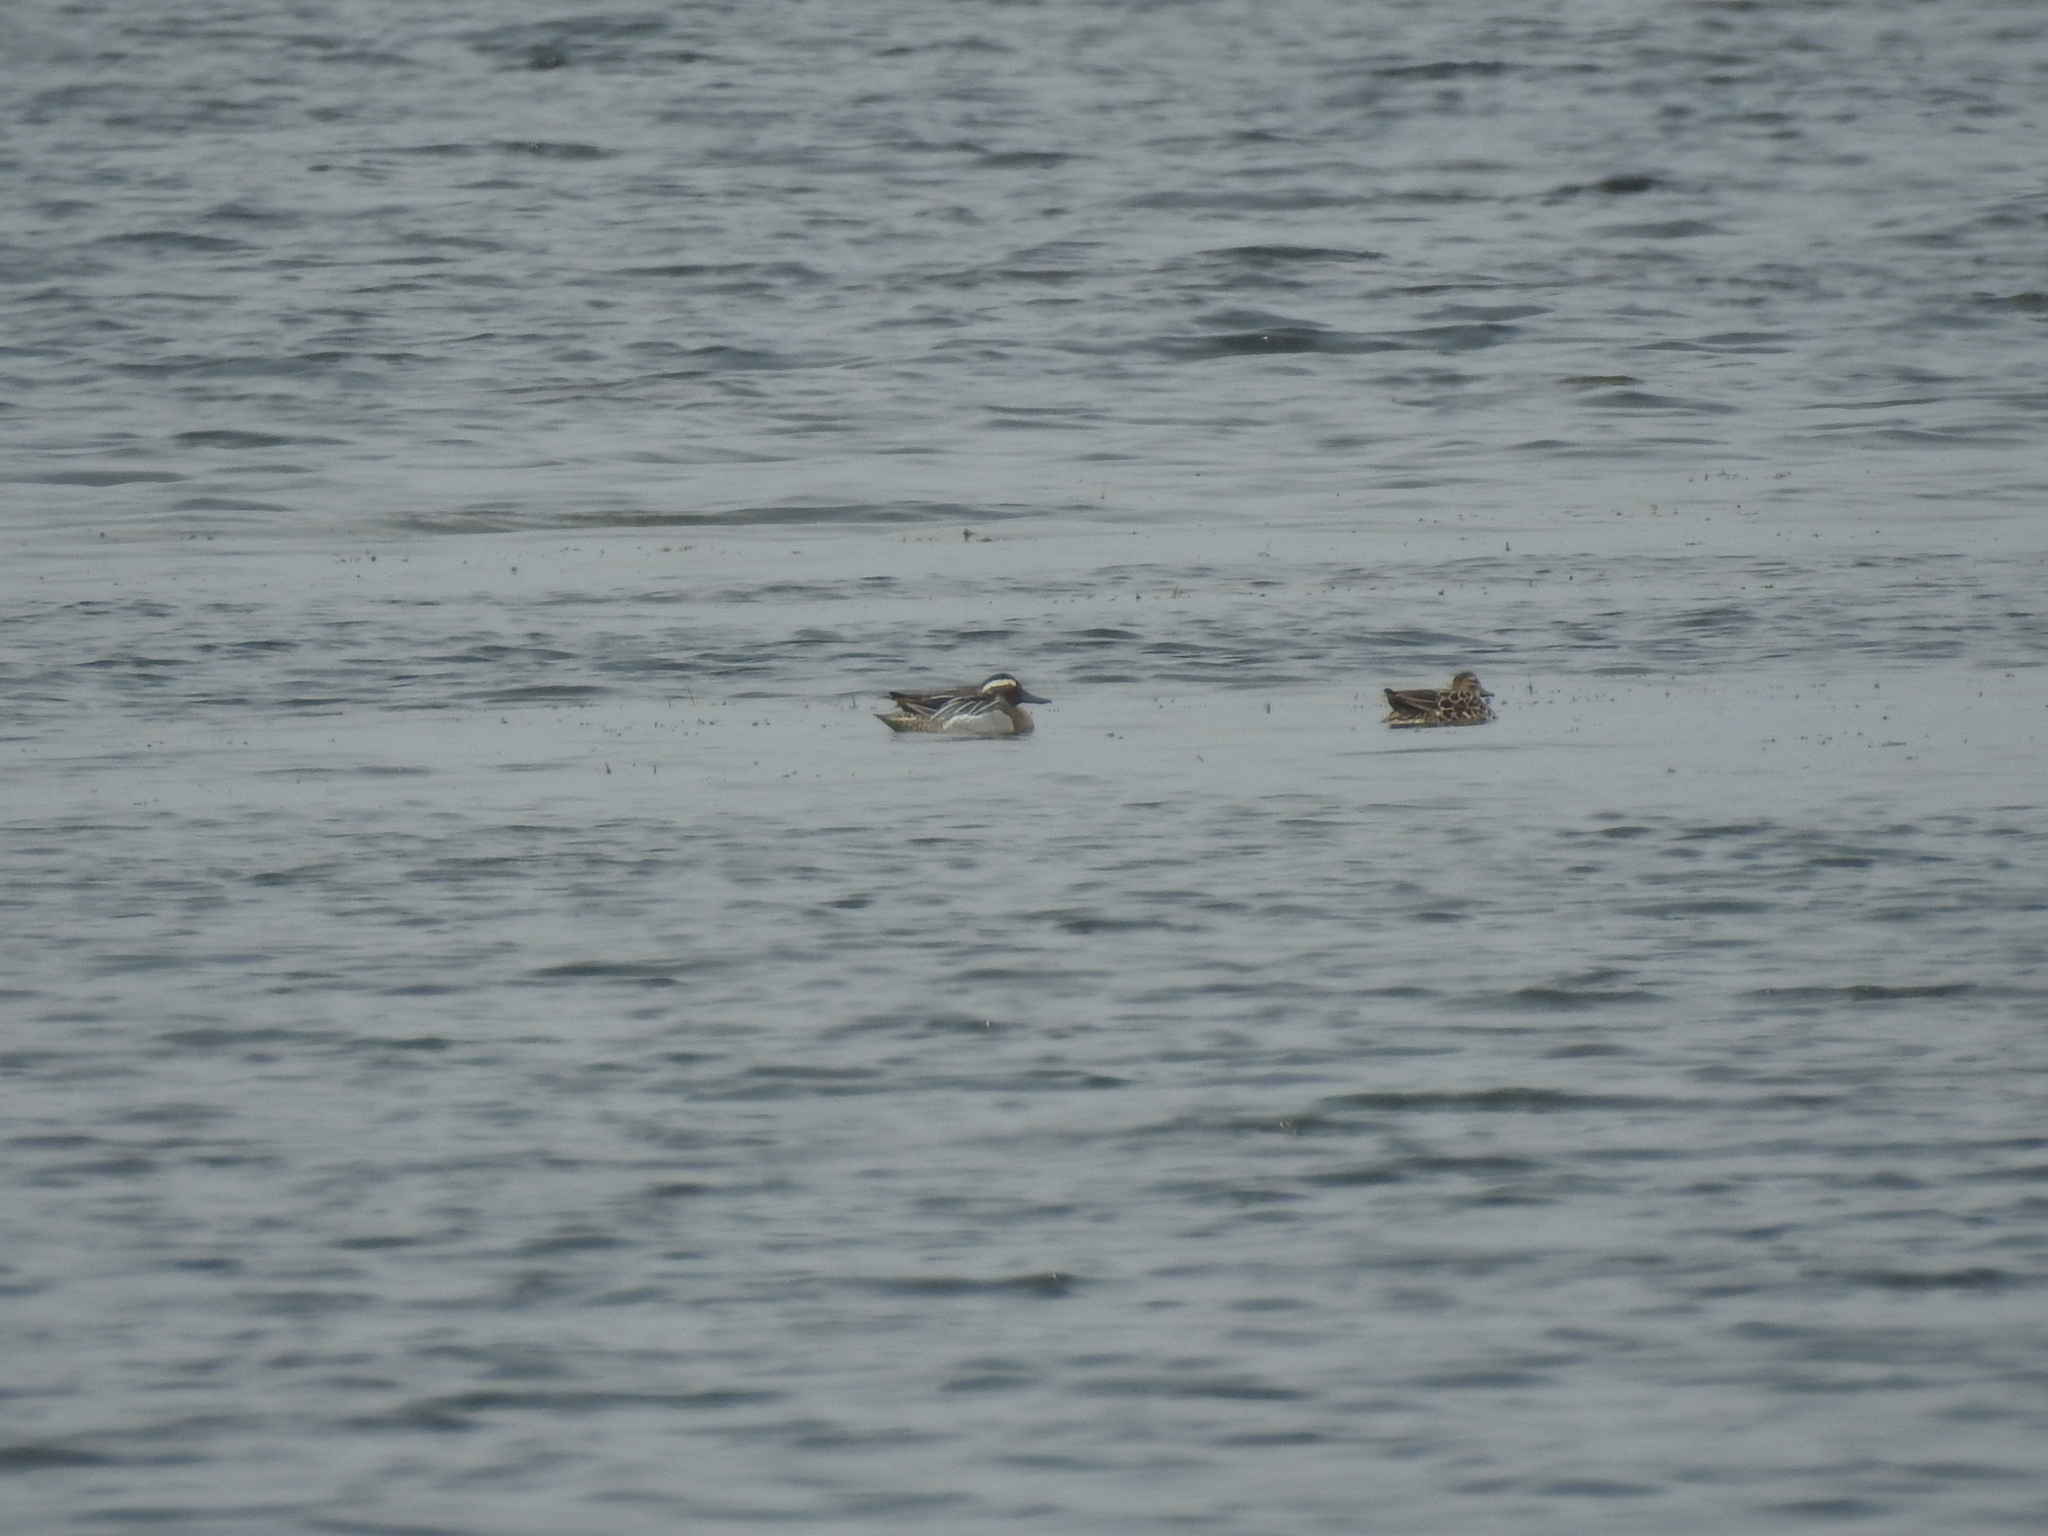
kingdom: Animalia
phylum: Chordata
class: Aves
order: Anseriformes
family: Anatidae
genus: Spatula
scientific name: Spatula querquedula
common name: Garganey
